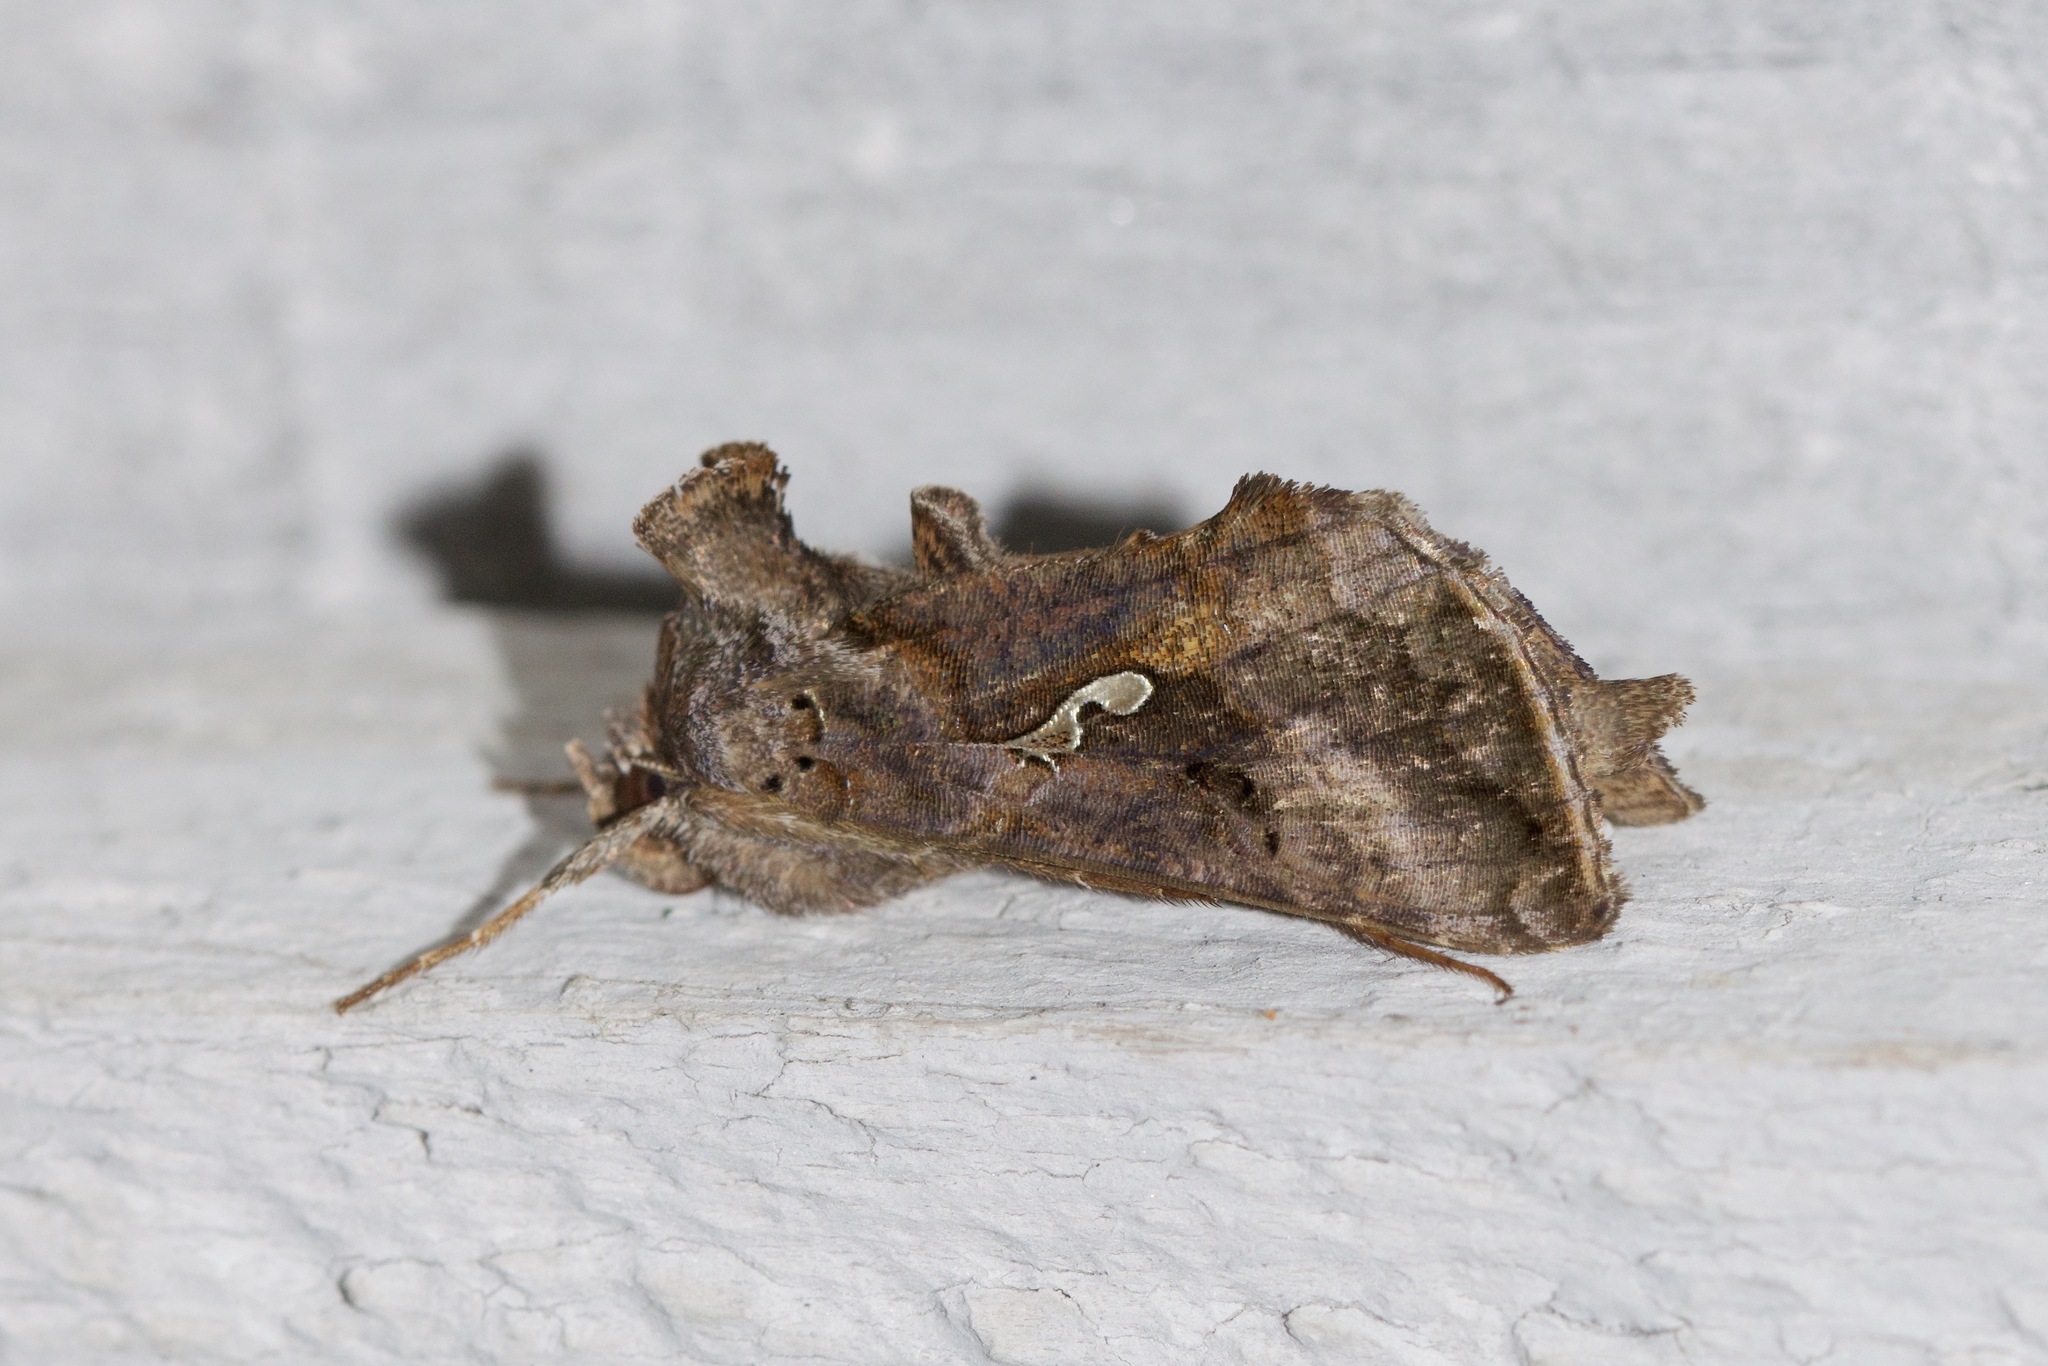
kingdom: Animalia
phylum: Arthropoda
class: Insecta
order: Lepidoptera
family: Noctuidae
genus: Autographa
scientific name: Autographa precationis
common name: Common looper moth
